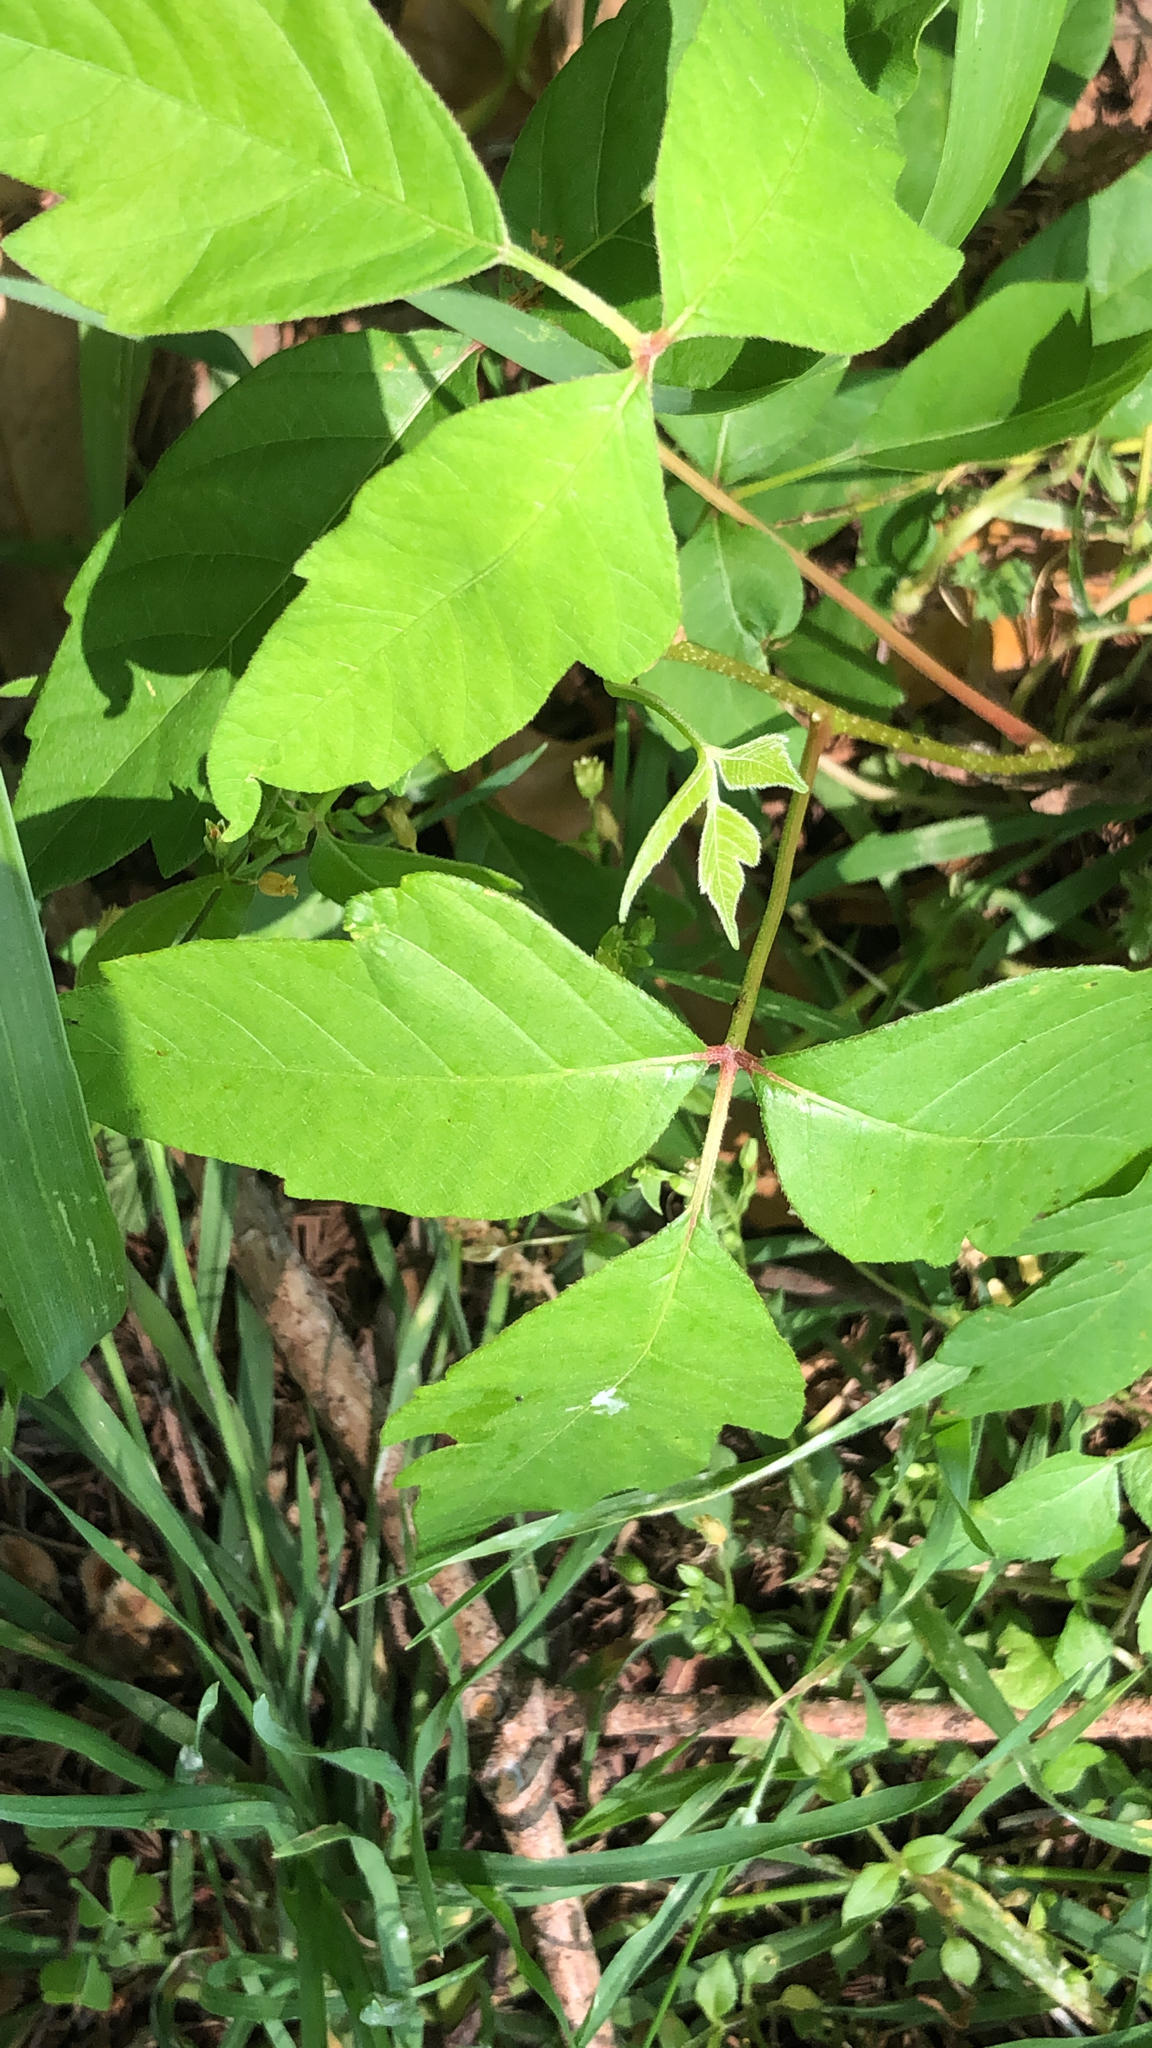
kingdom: Plantae
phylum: Tracheophyta
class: Magnoliopsida
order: Sapindales
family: Anacardiaceae
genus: Toxicodendron
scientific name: Toxicodendron radicans
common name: Poison ivy
